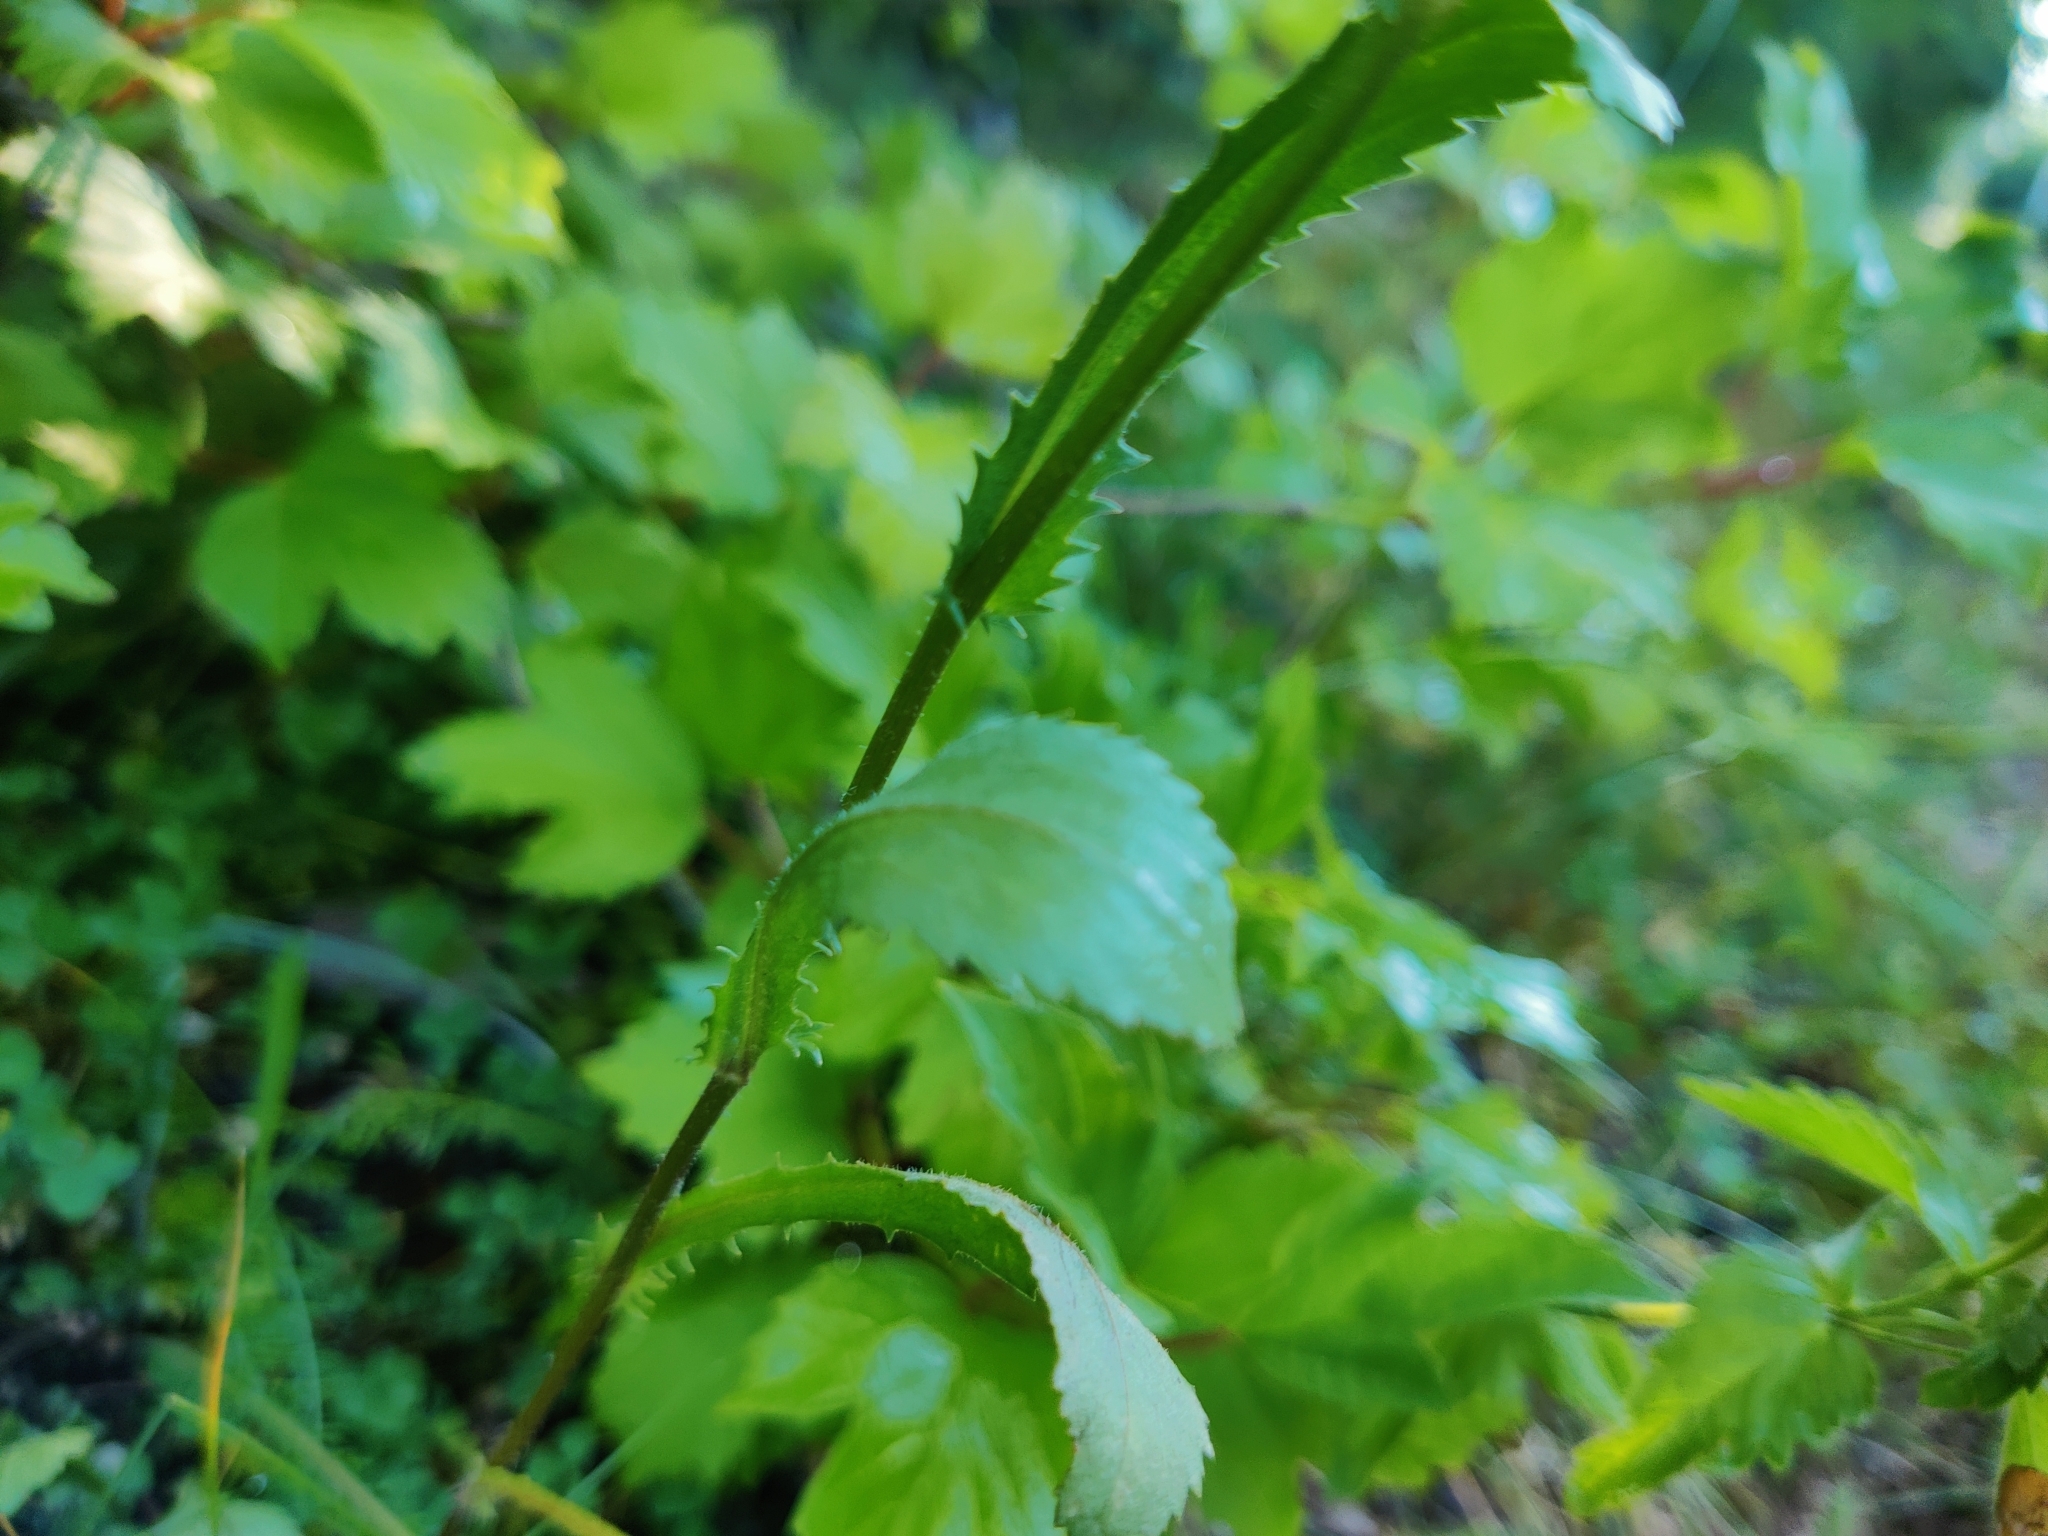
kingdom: Plantae
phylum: Tracheophyta
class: Magnoliopsida
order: Asterales
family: Asteraceae
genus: Leucanthemum
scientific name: Leucanthemum vulgare
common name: Oxeye daisy
